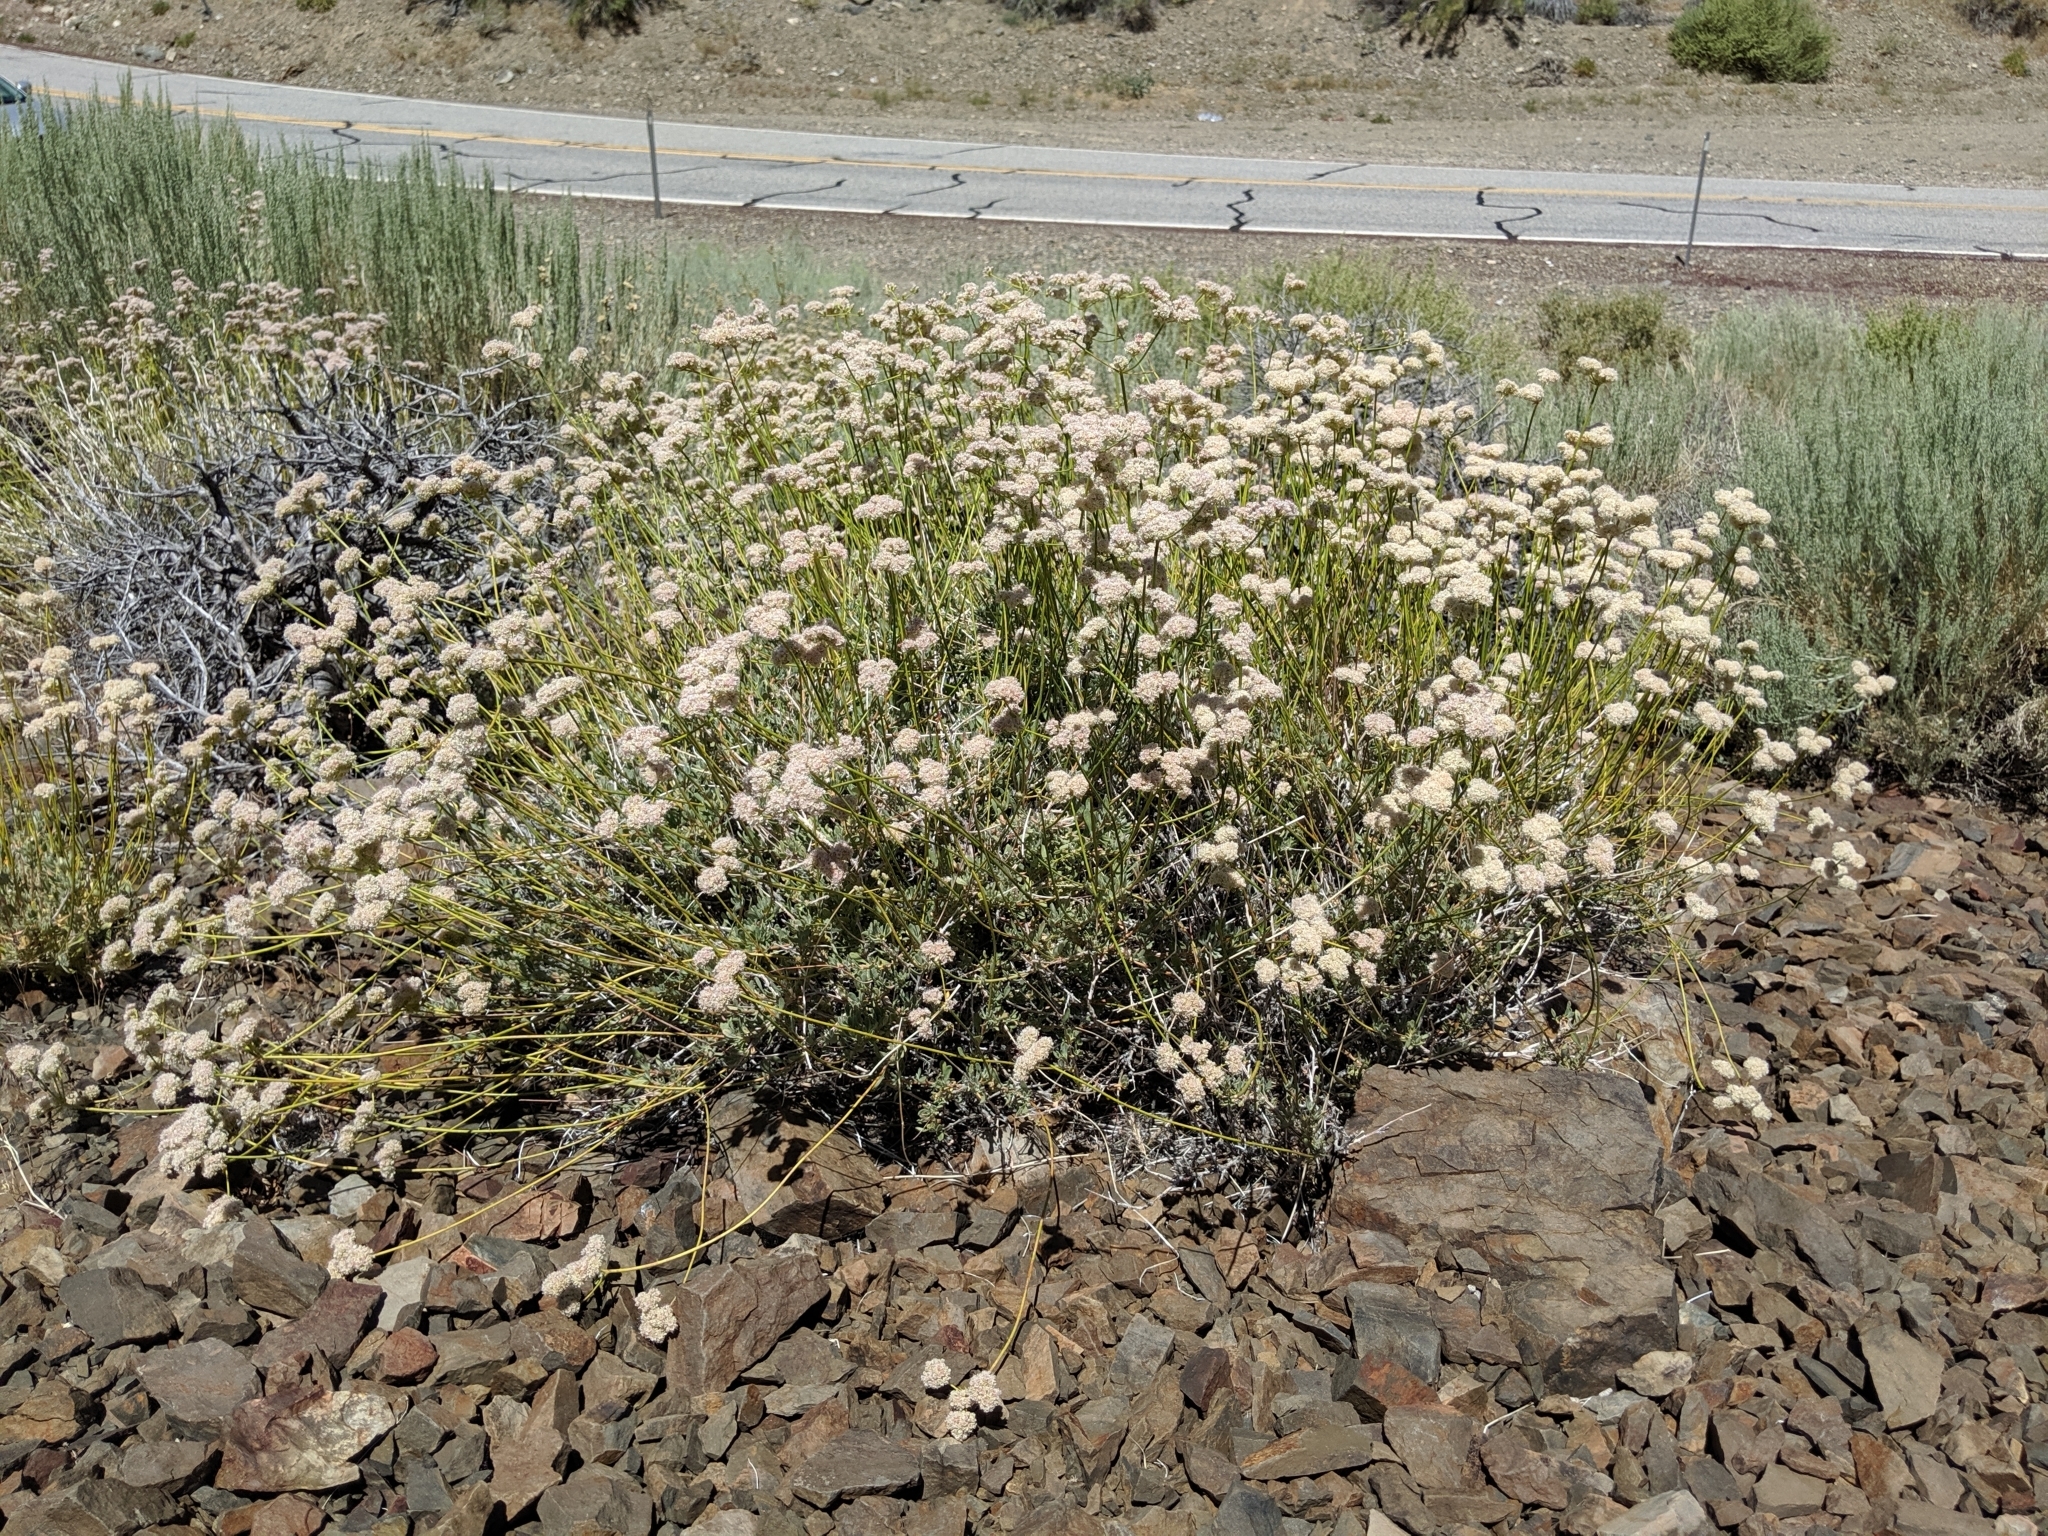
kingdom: Plantae
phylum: Tracheophyta
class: Magnoliopsida
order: Caryophyllales
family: Polygonaceae
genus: Eriogonum
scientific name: Eriogonum fasciculatum
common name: California wild buckwheat
